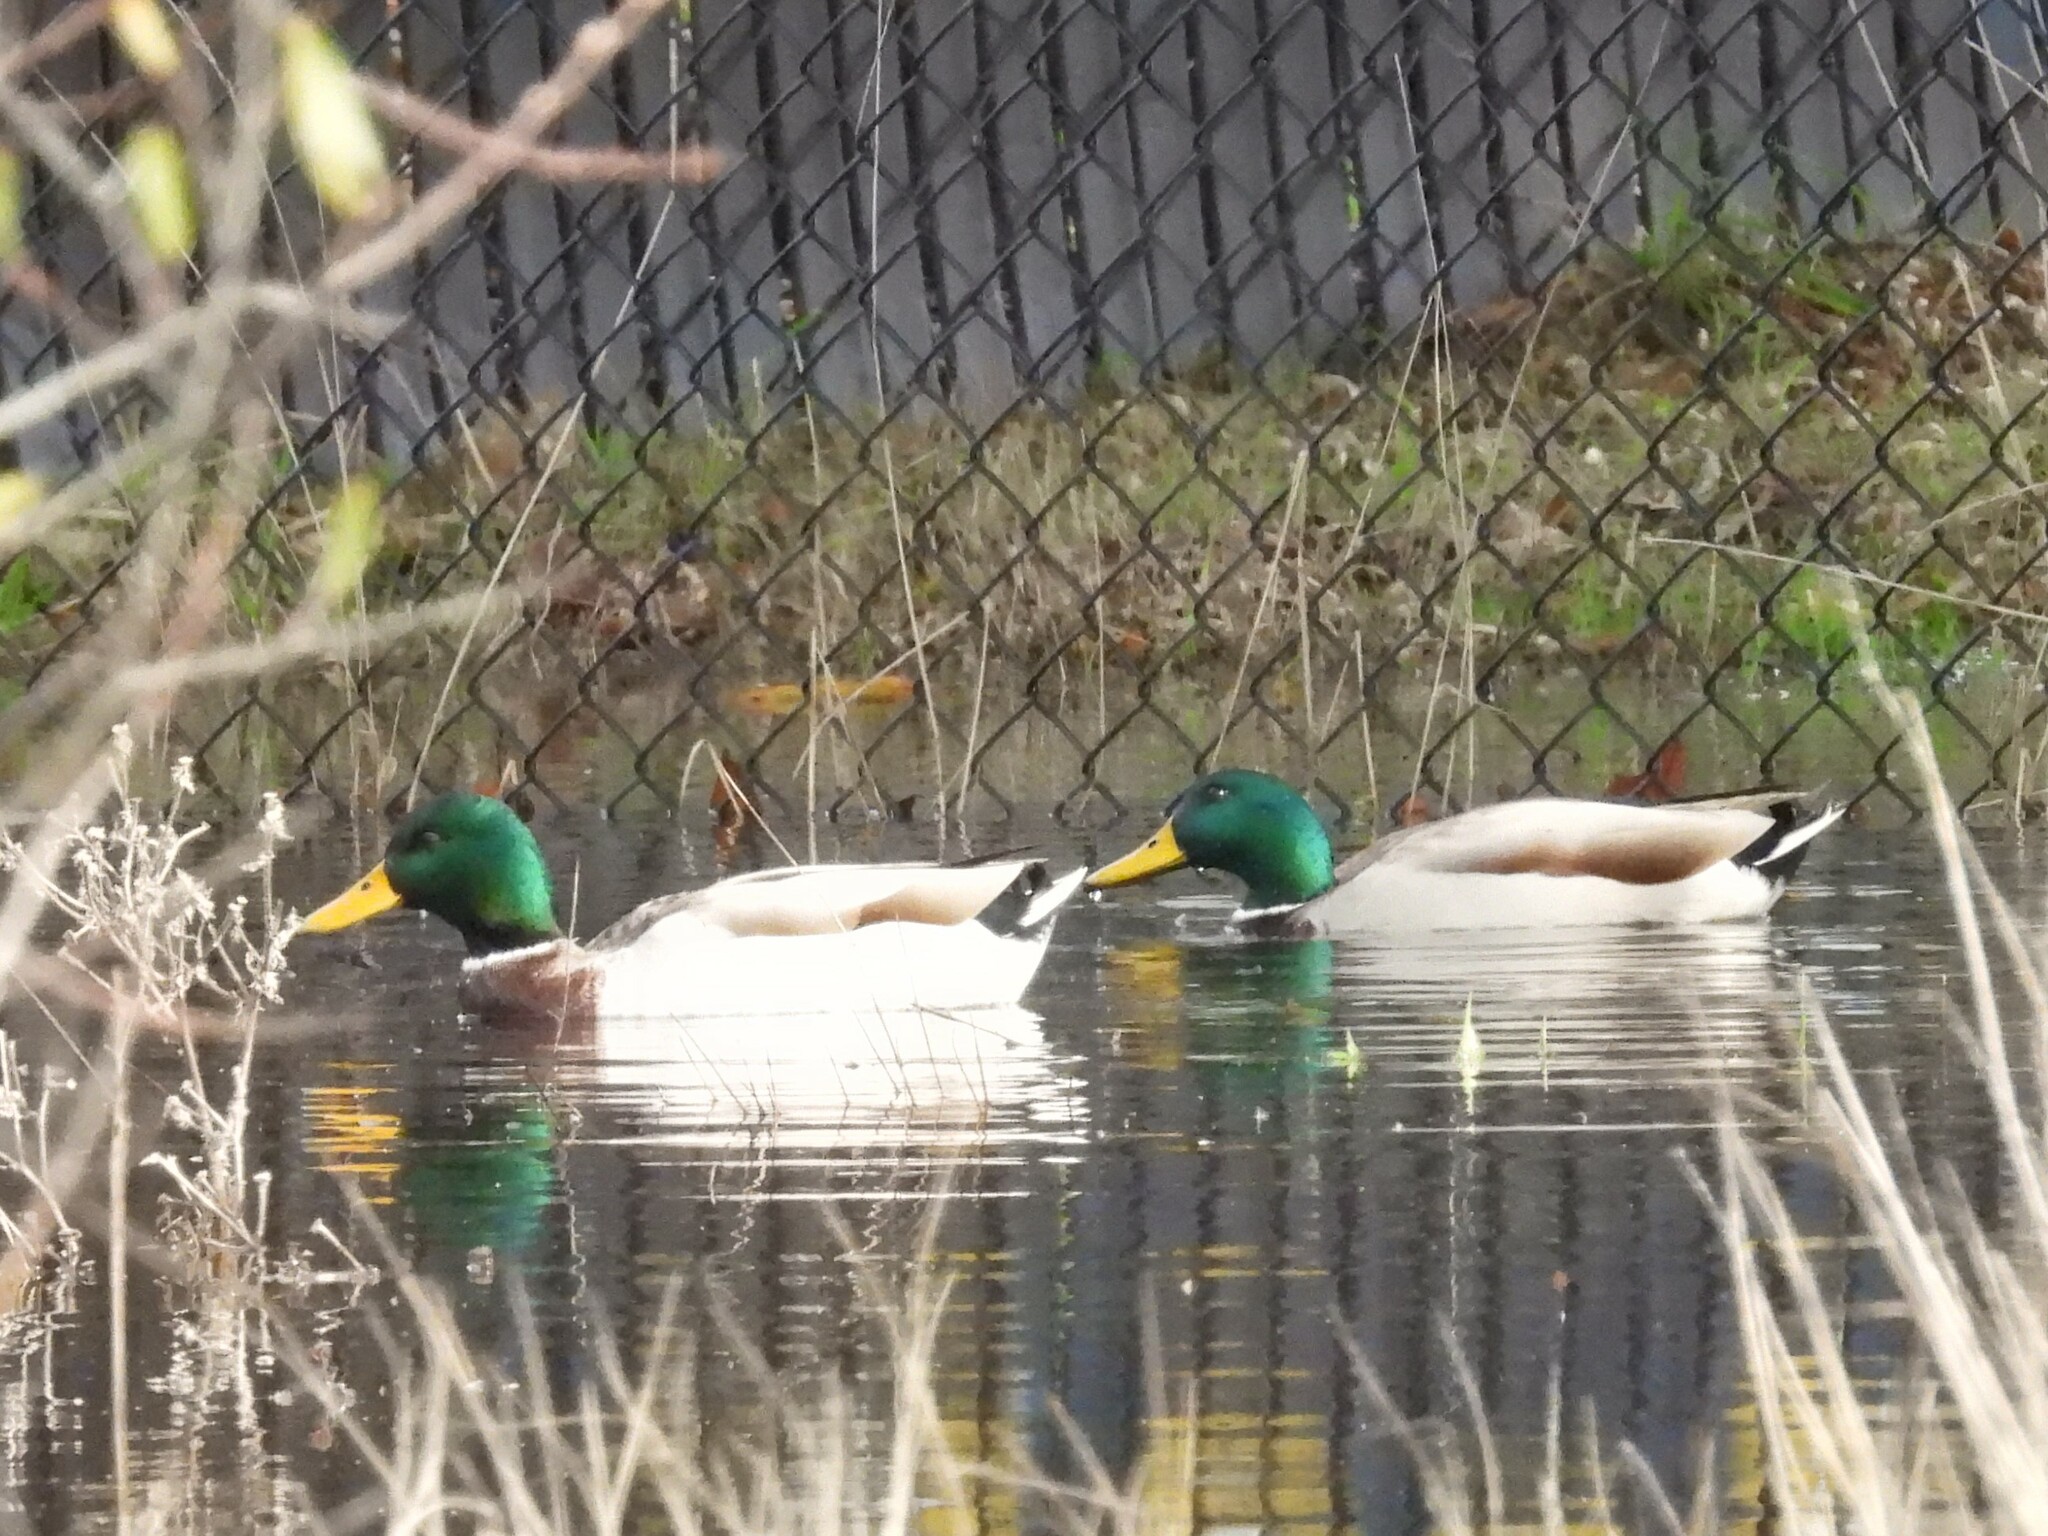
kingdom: Animalia
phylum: Chordata
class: Aves
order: Anseriformes
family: Anatidae
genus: Anas
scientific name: Anas platyrhynchos
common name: Mallard
